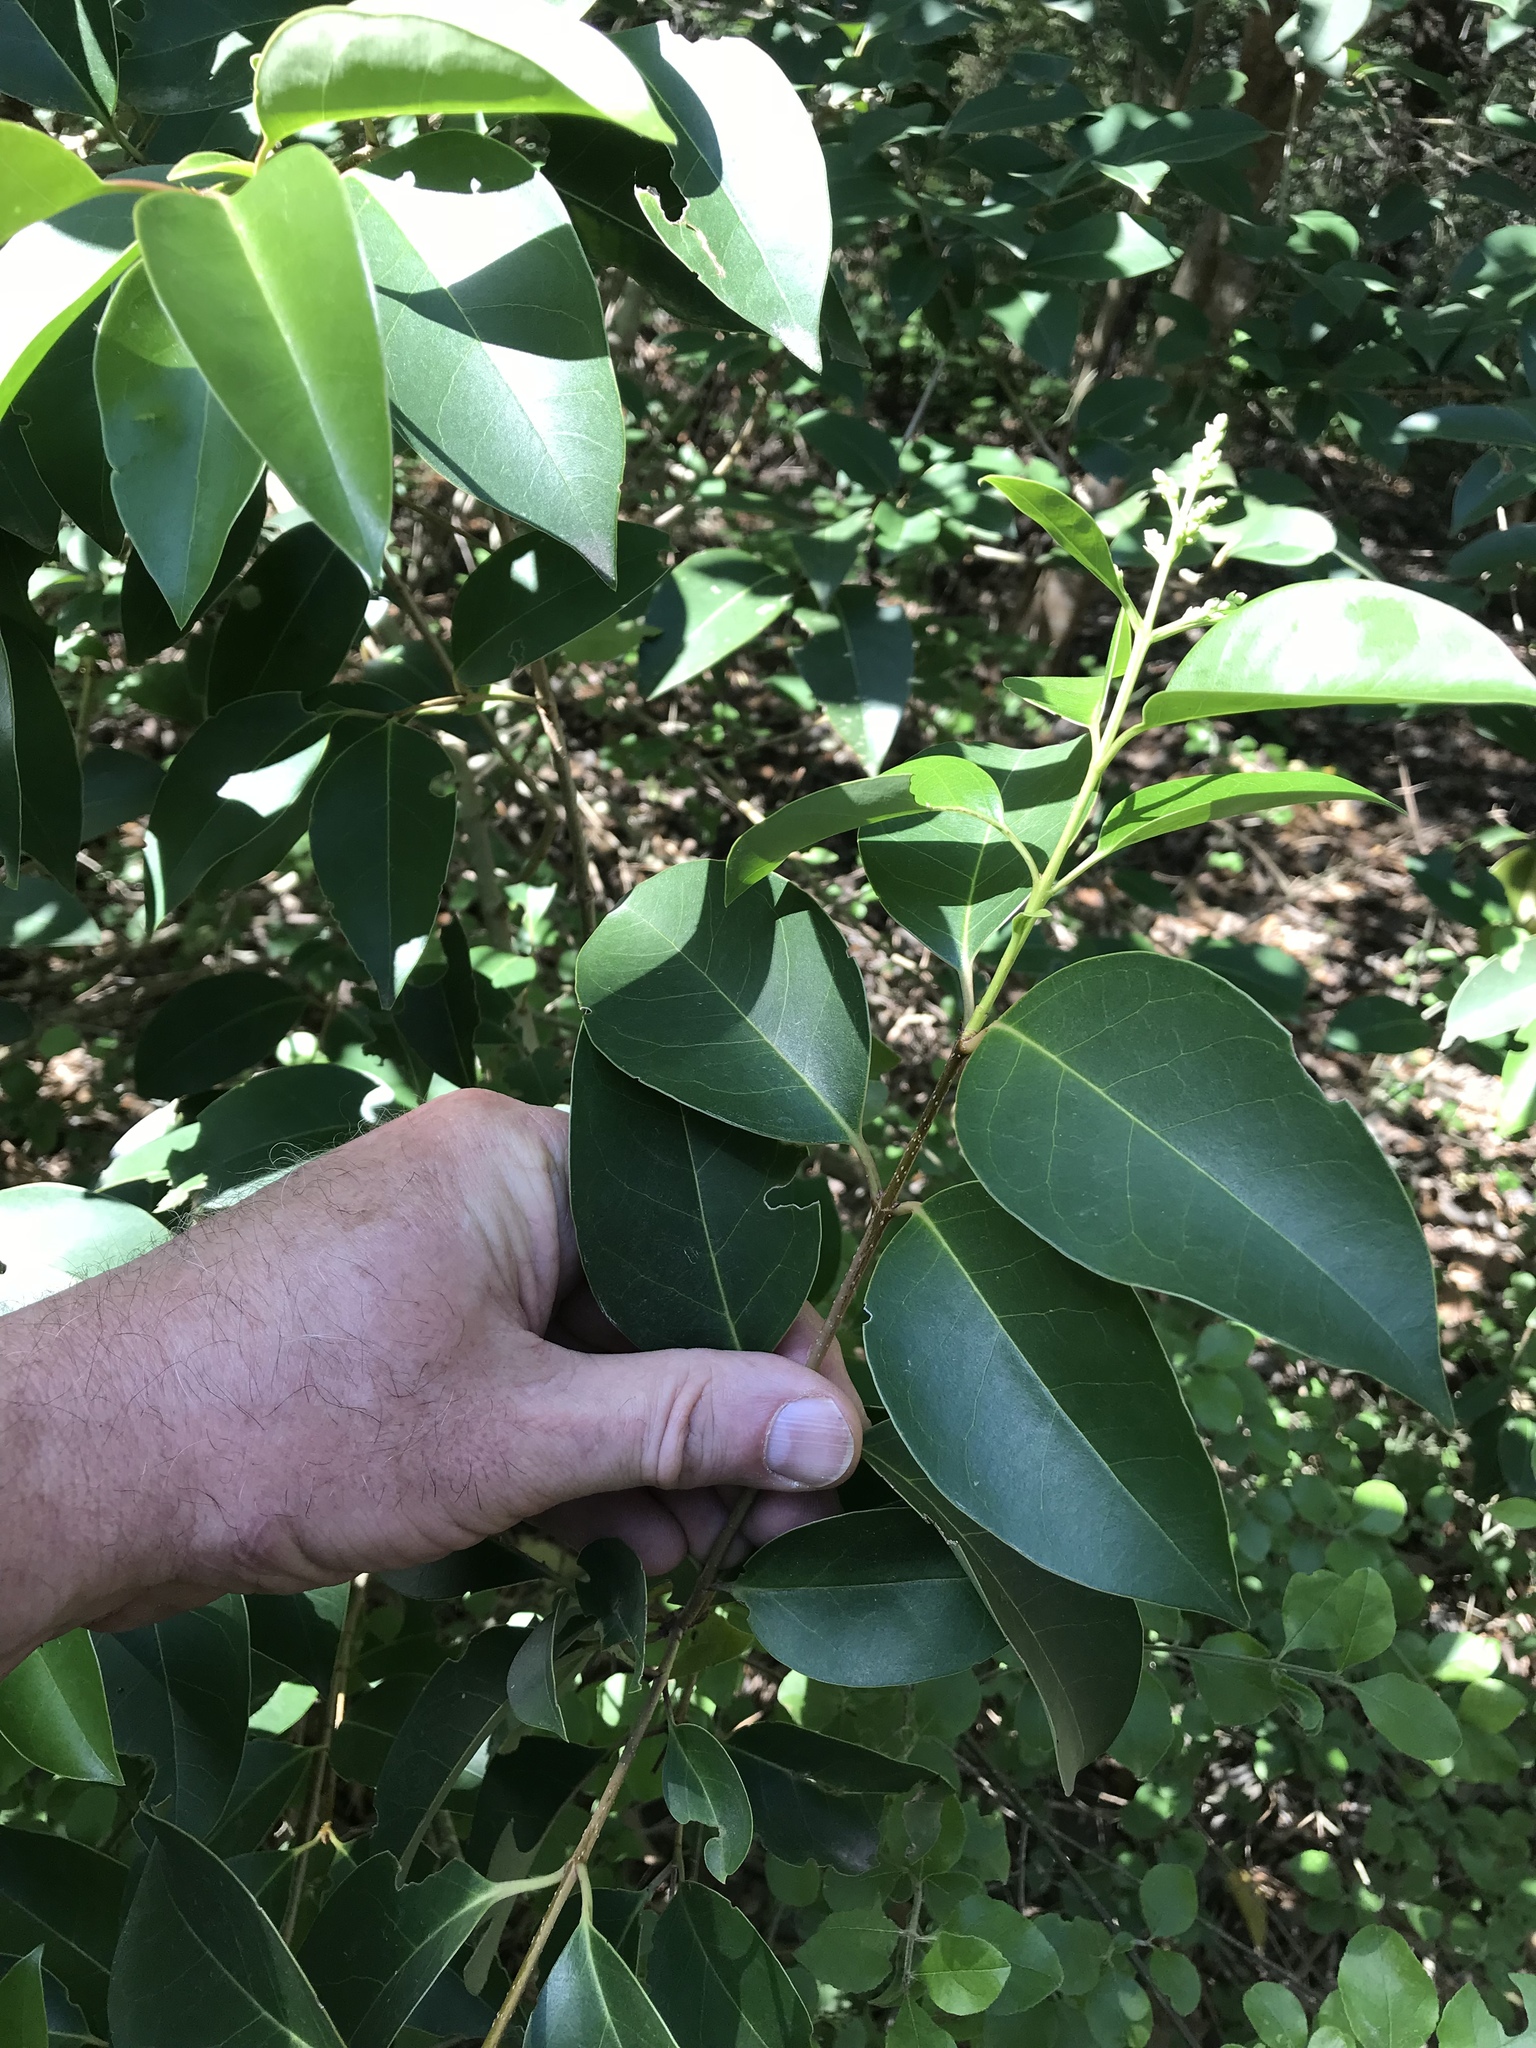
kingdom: Plantae
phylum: Tracheophyta
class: Magnoliopsida
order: Lamiales
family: Oleaceae
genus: Ligustrum
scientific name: Ligustrum lucidum
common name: Glossy privet
